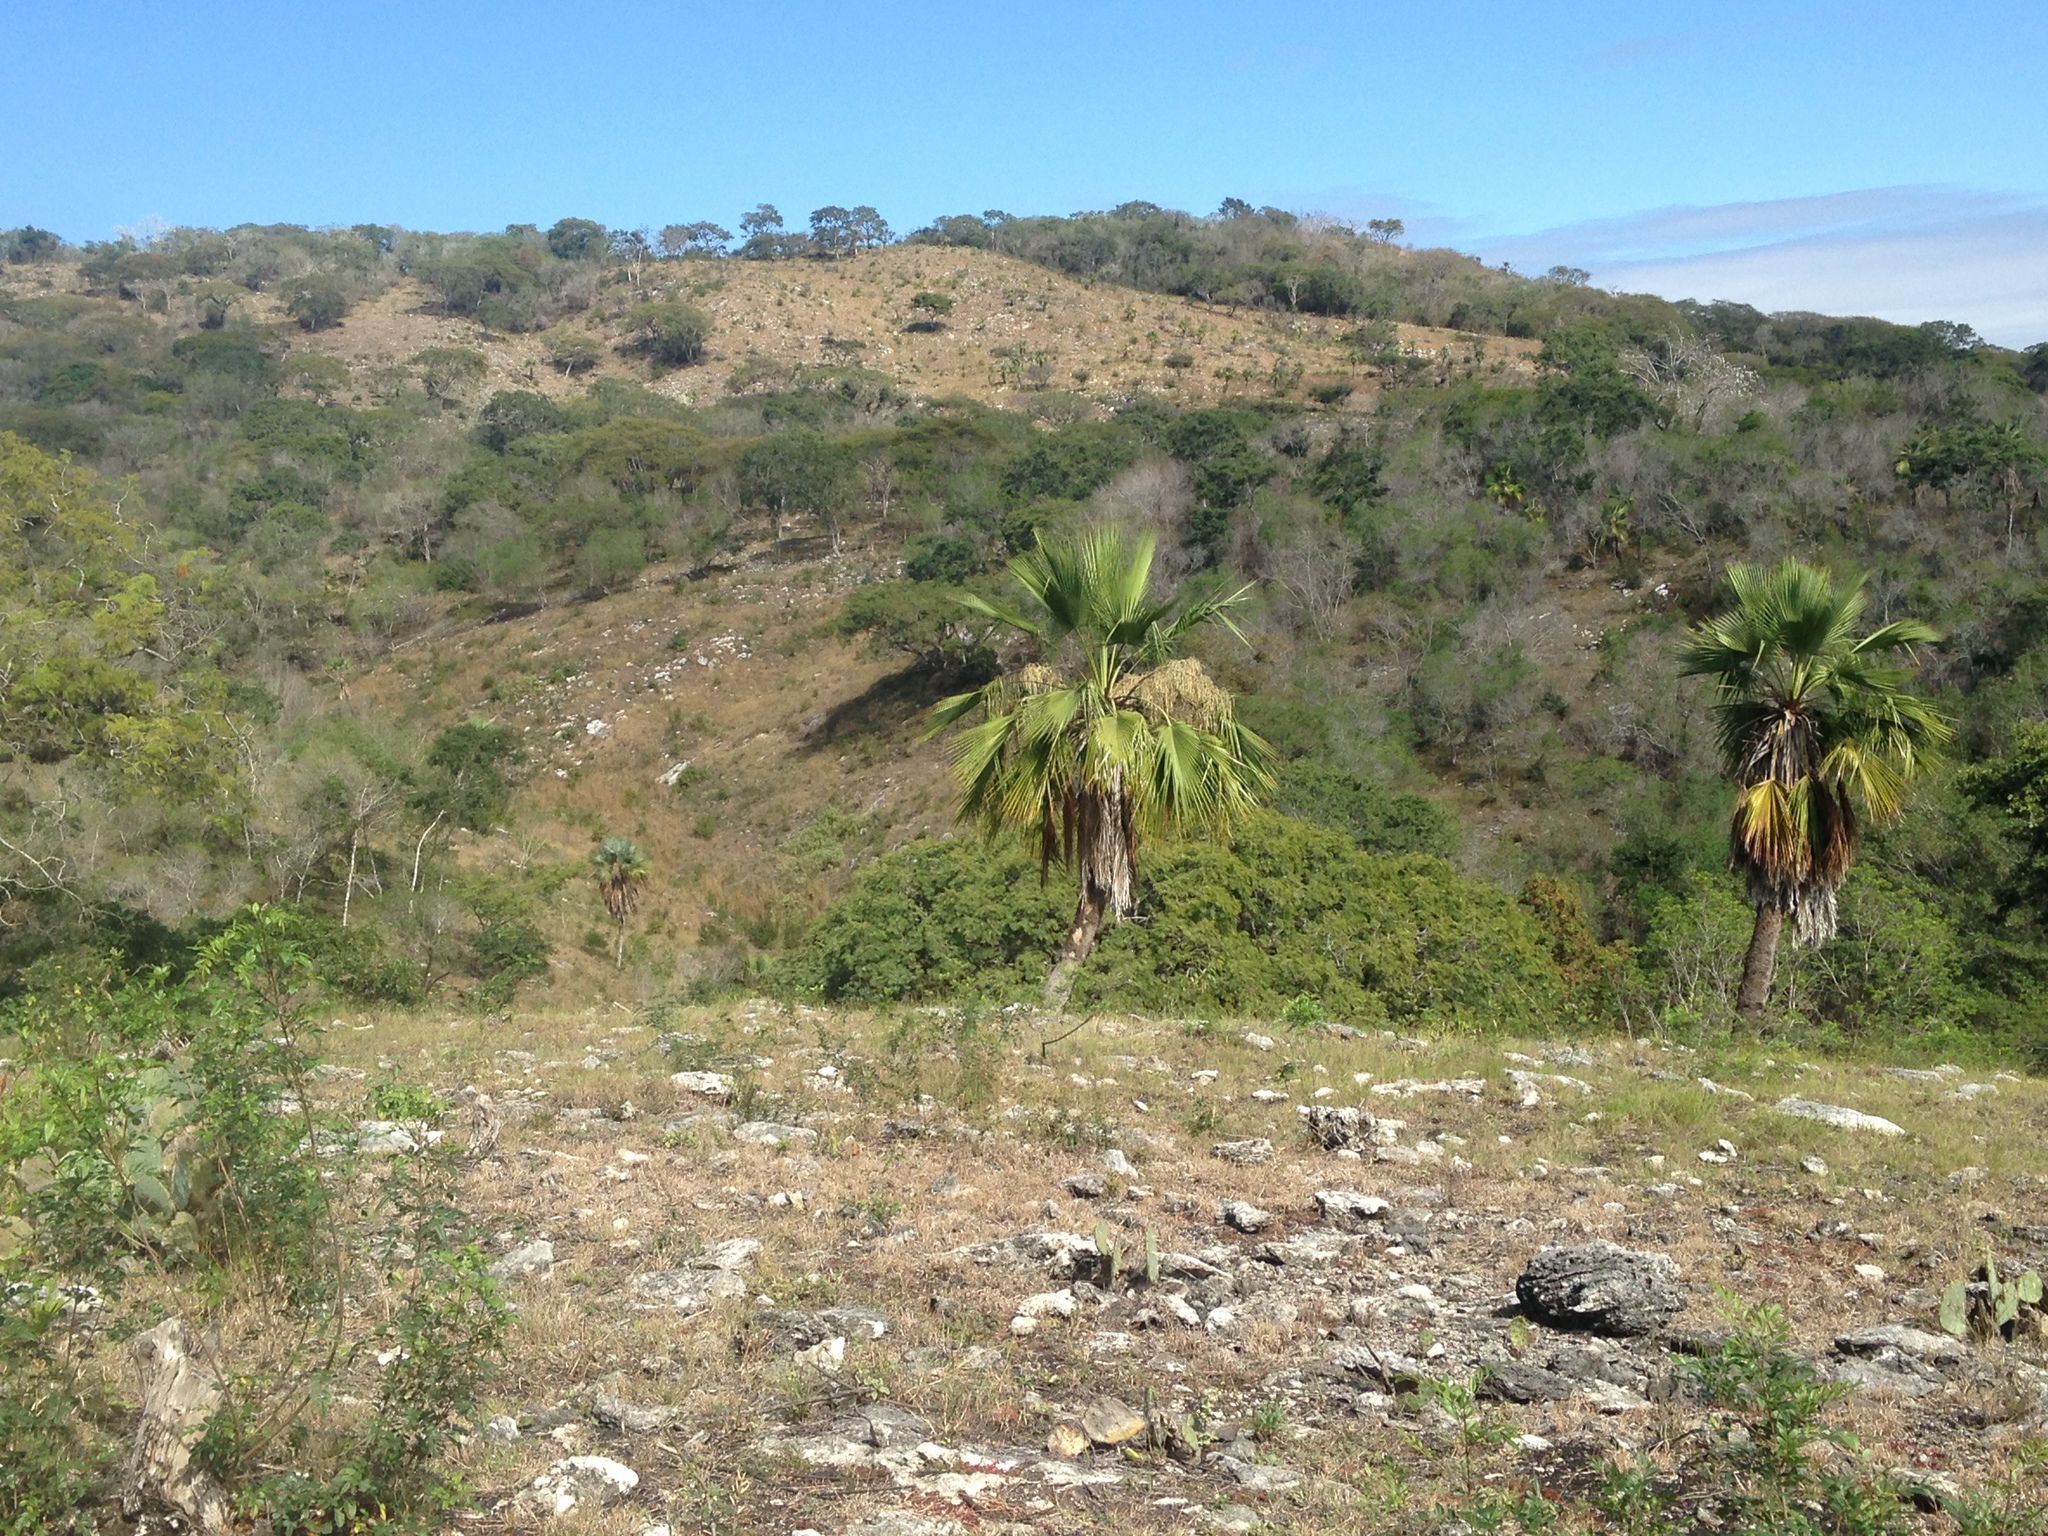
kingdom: Plantae
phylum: Tracheophyta
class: Liliopsida
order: Arecales
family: Arecaceae
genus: Brahea
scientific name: Brahea dulcis
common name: Apak palm
